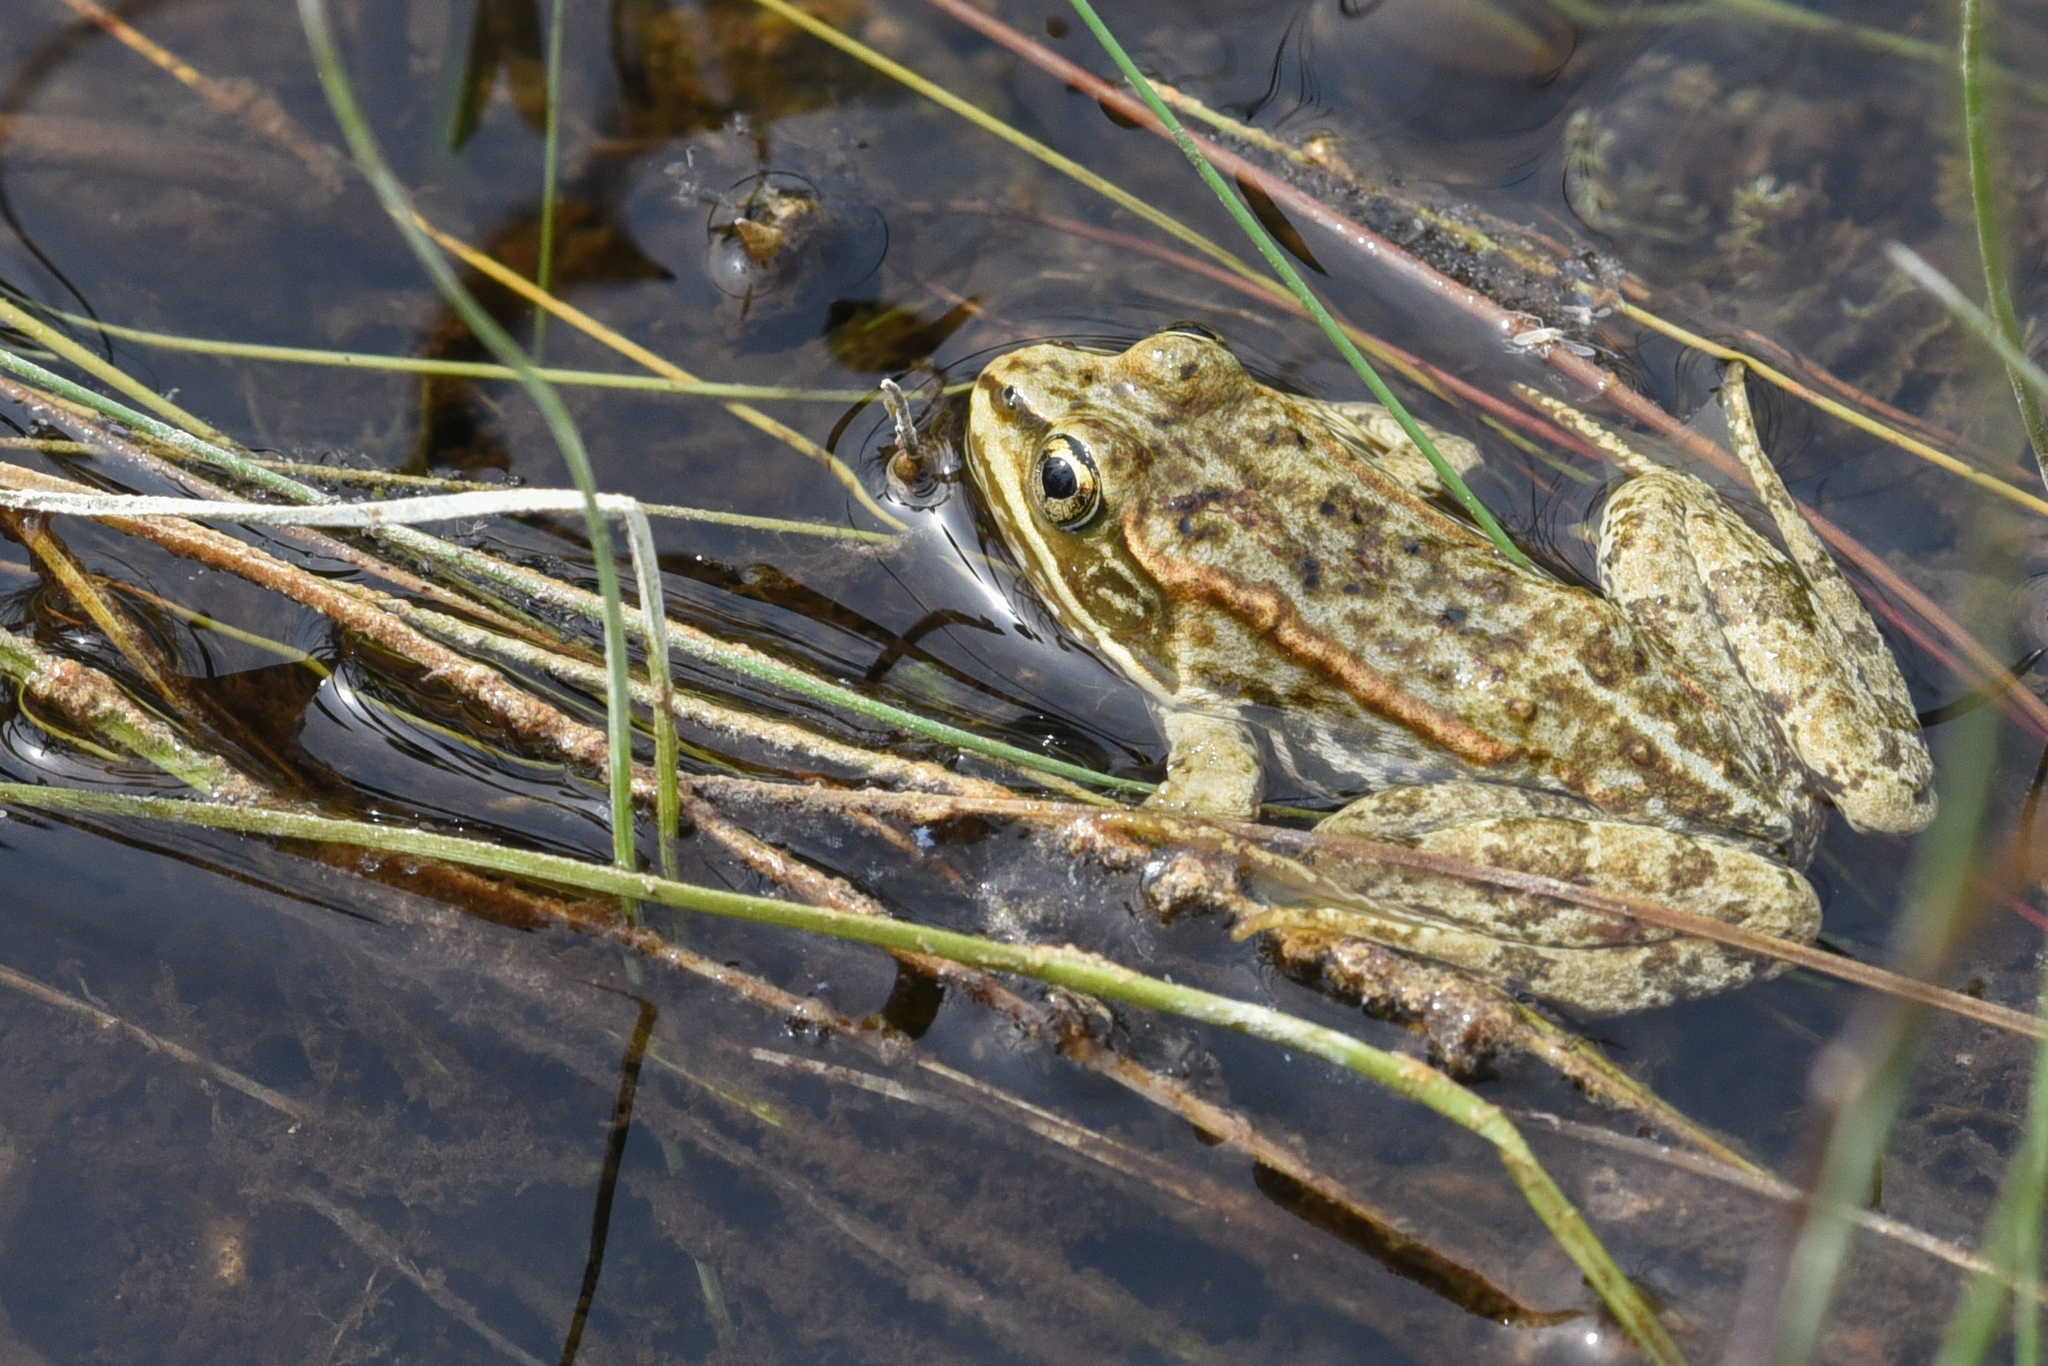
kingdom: Animalia
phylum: Chordata
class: Amphibia
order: Anura
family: Ranidae
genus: Rana
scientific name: Rana luteiventris
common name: Columbia spotted frog
